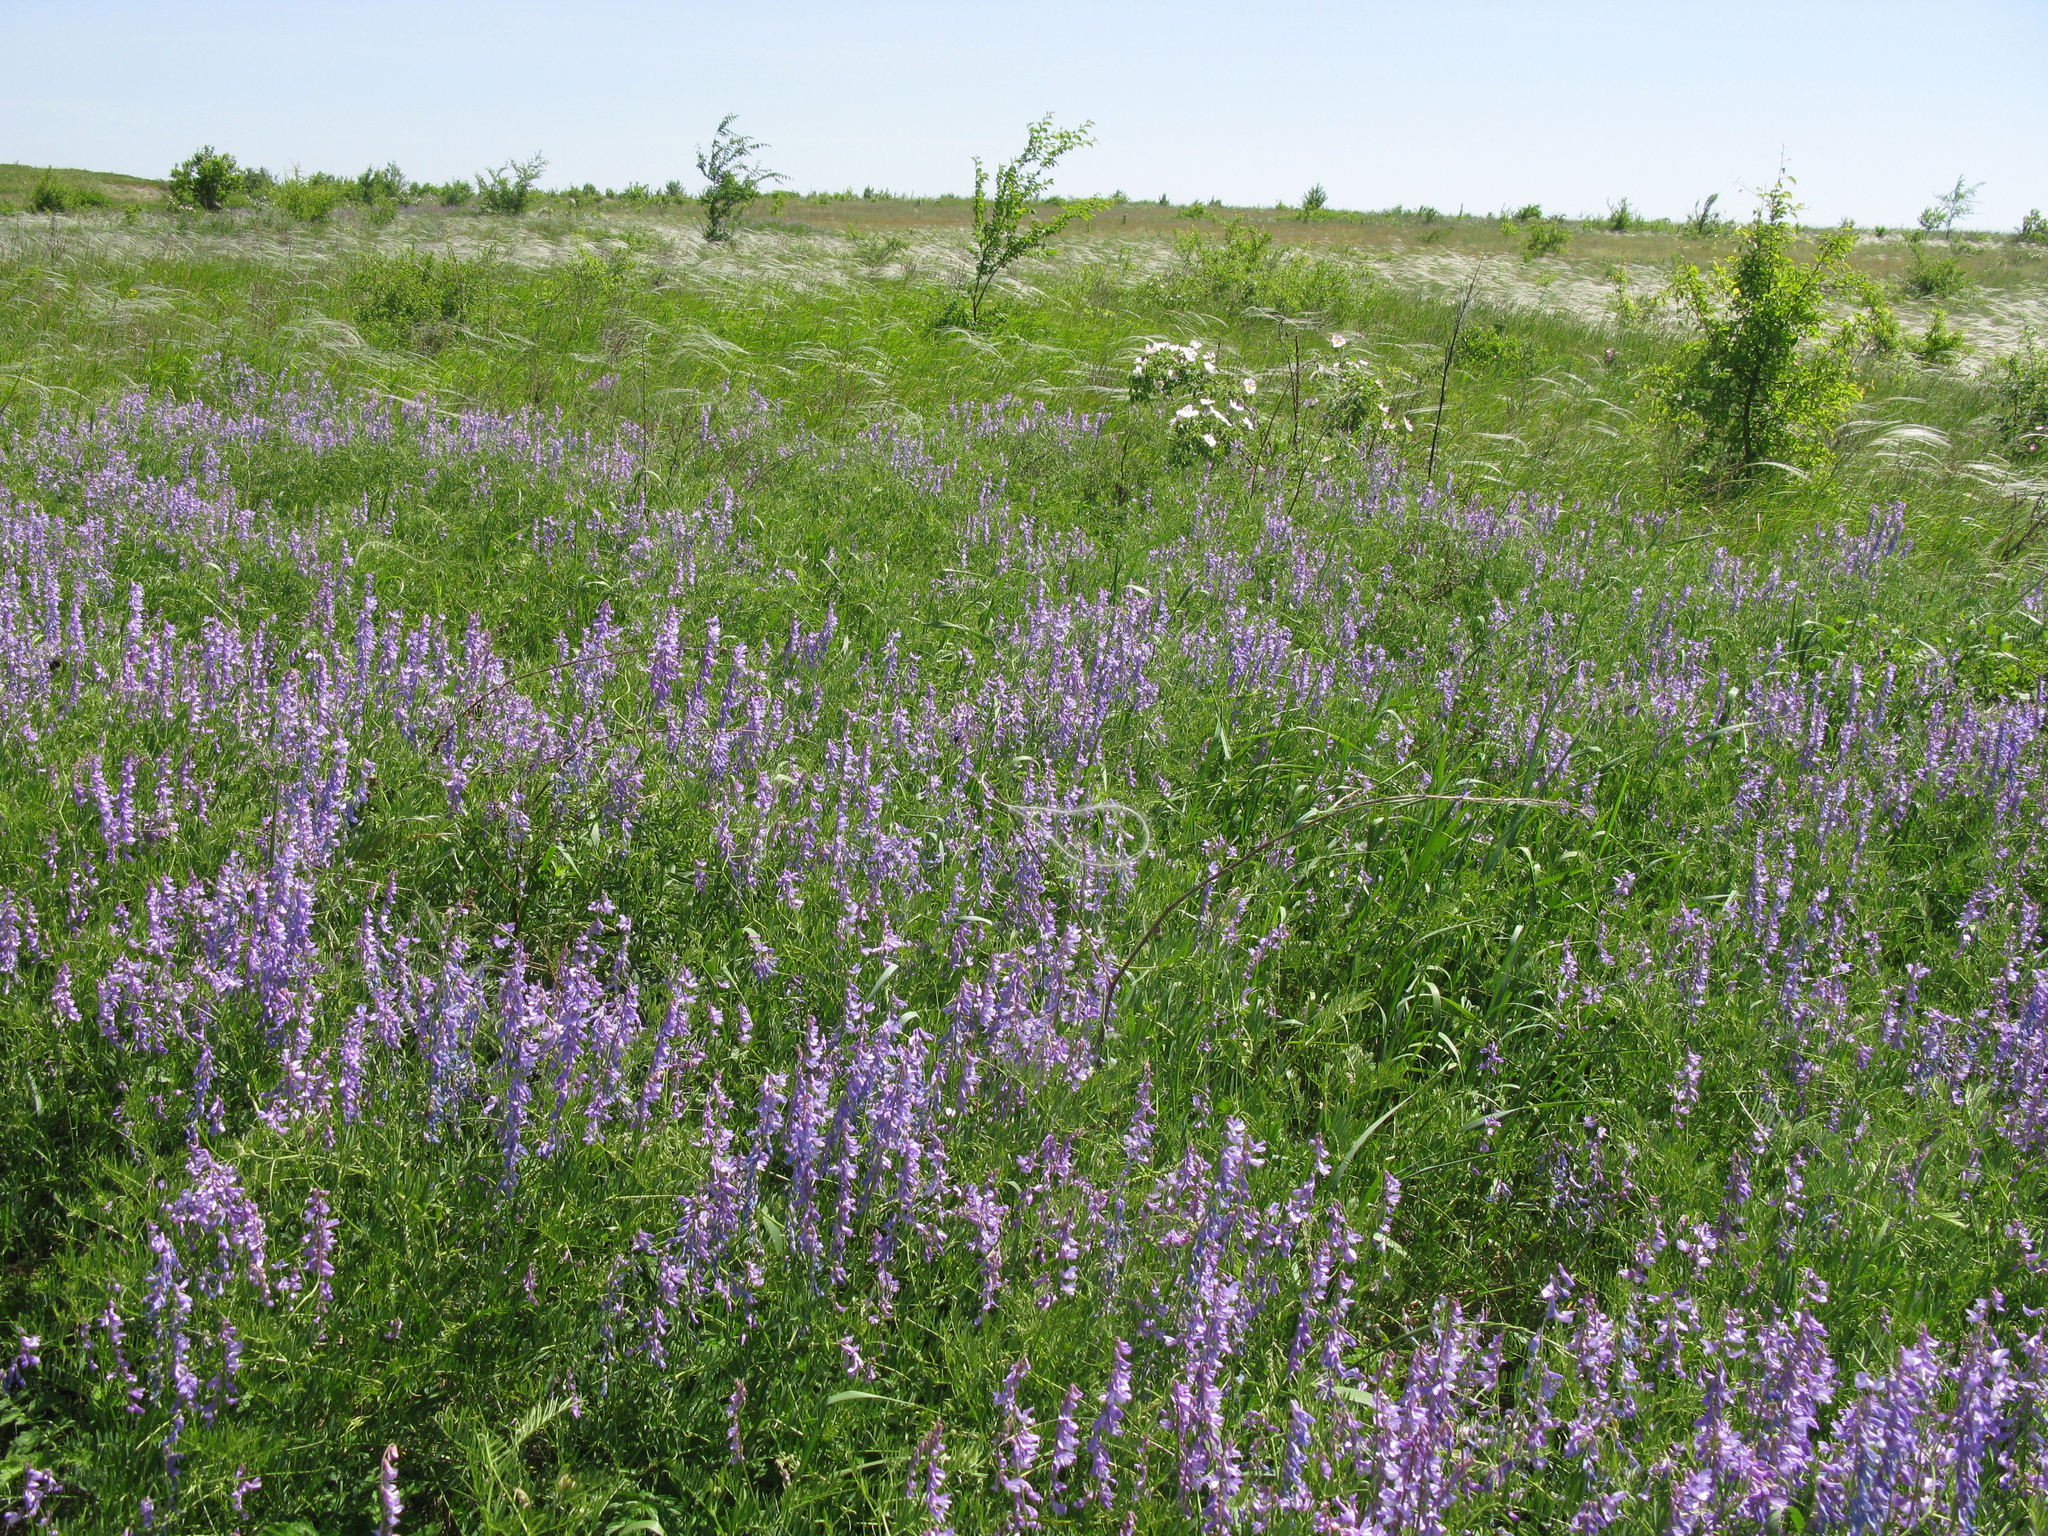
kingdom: Plantae
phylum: Tracheophyta
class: Magnoliopsida
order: Fabales
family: Fabaceae
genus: Vicia
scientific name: Vicia tenuifolia
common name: Fine-leaved vetch
